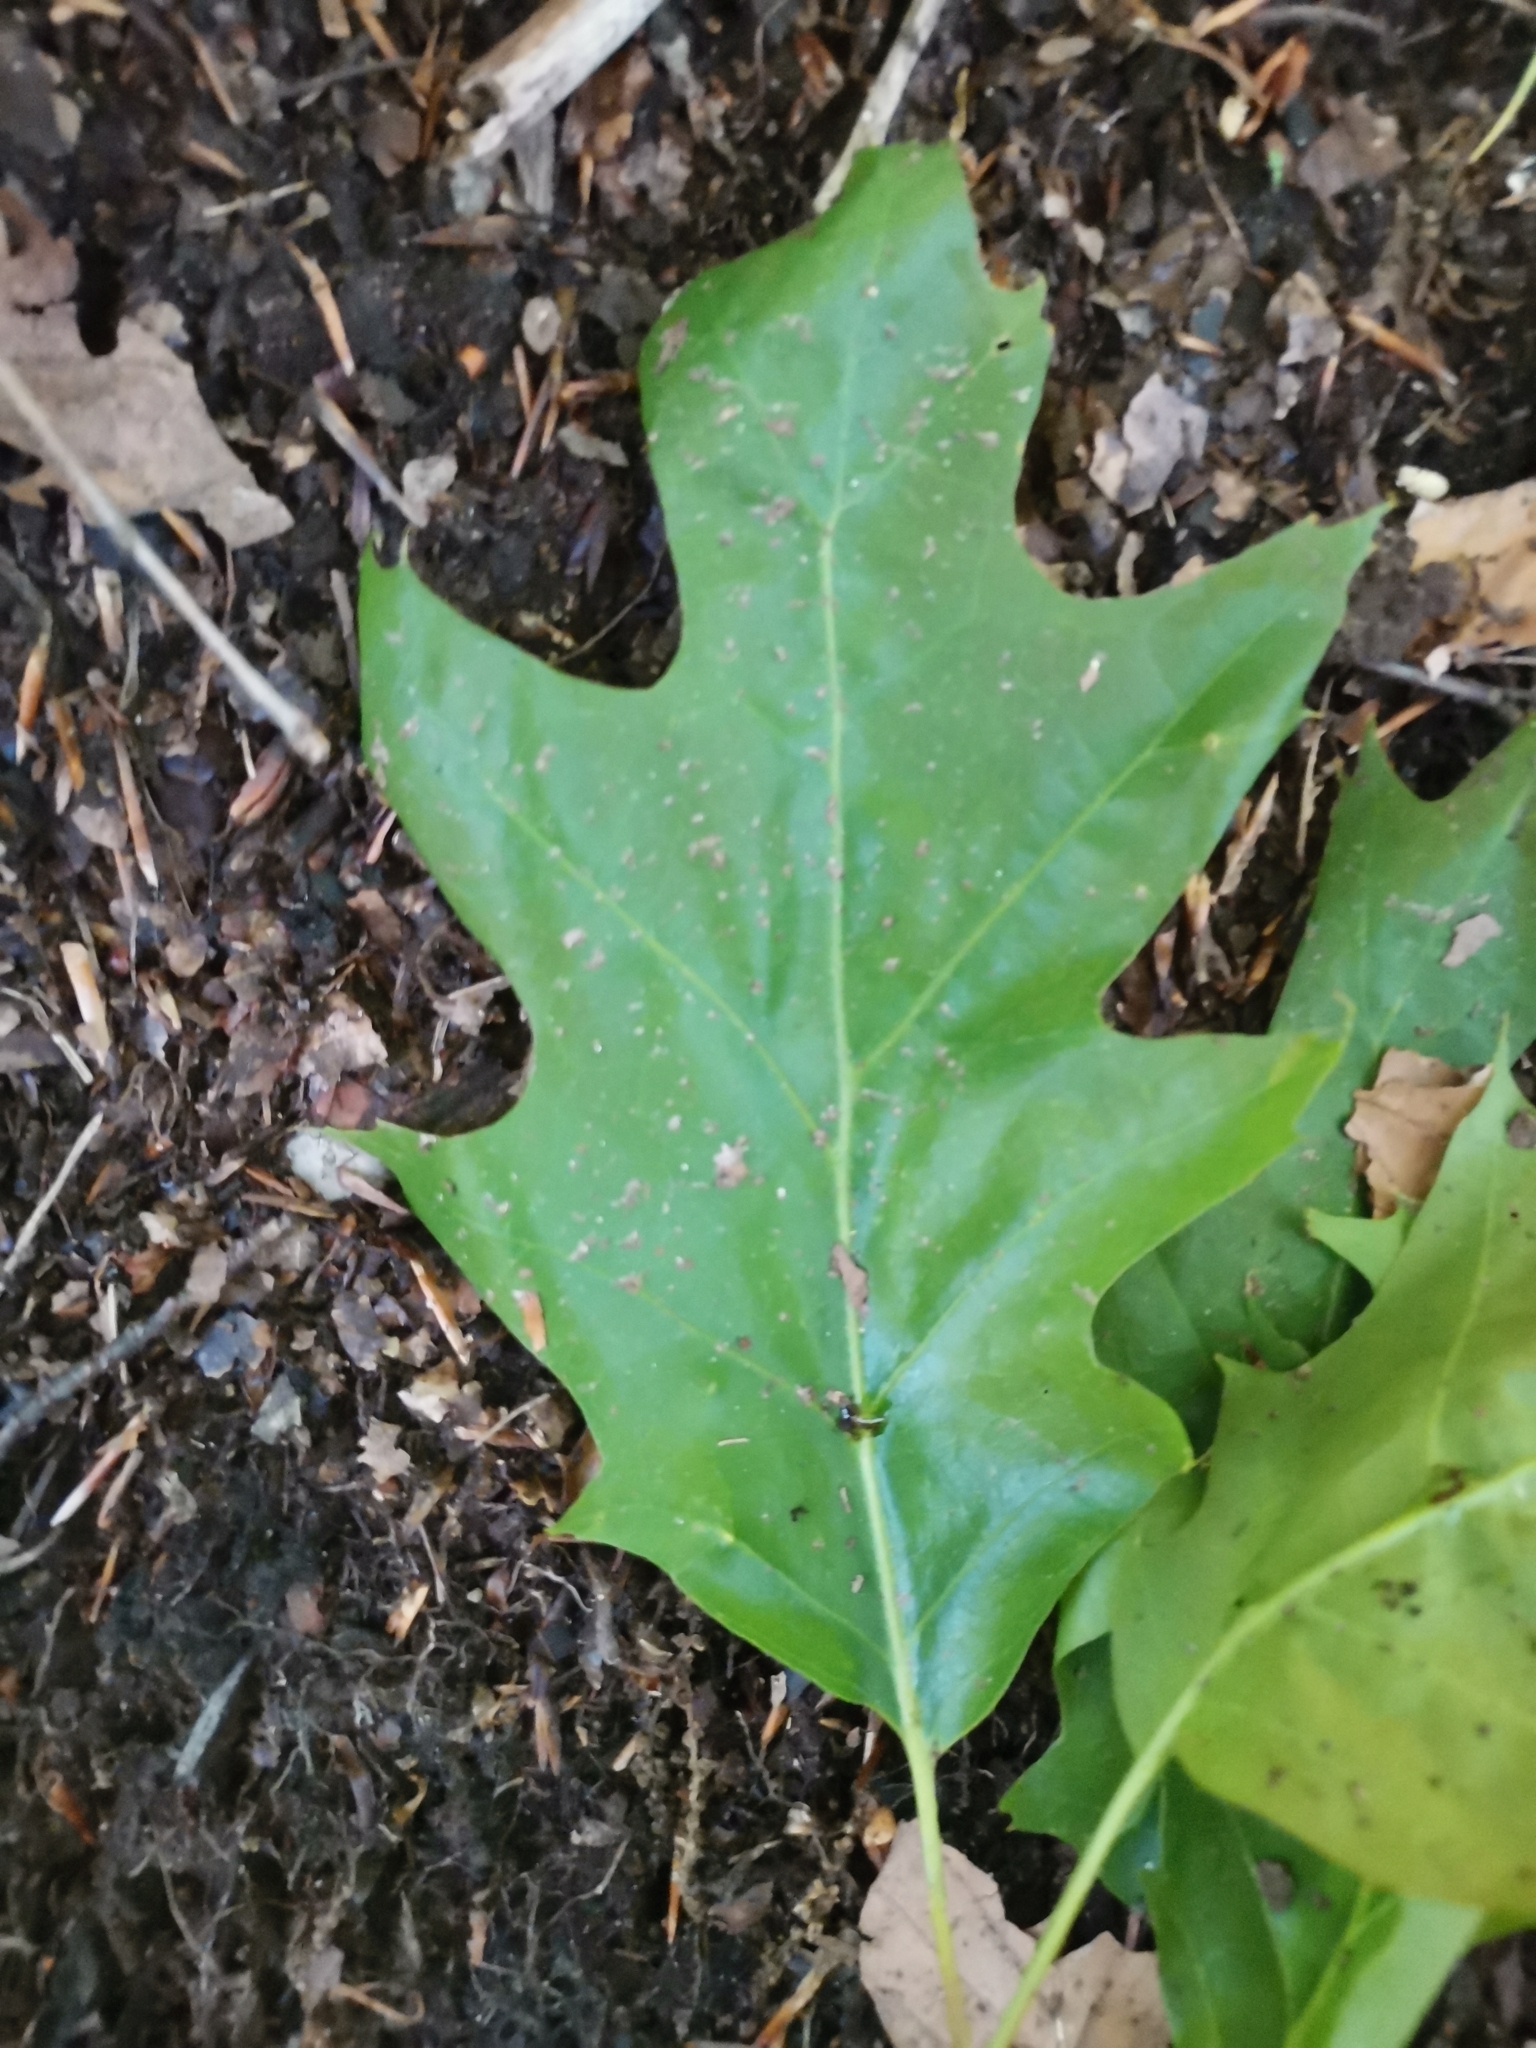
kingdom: Plantae
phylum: Tracheophyta
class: Magnoliopsida
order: Fagales
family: Fagaceae
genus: Quercus
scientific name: Quercus rubra
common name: Red oak
